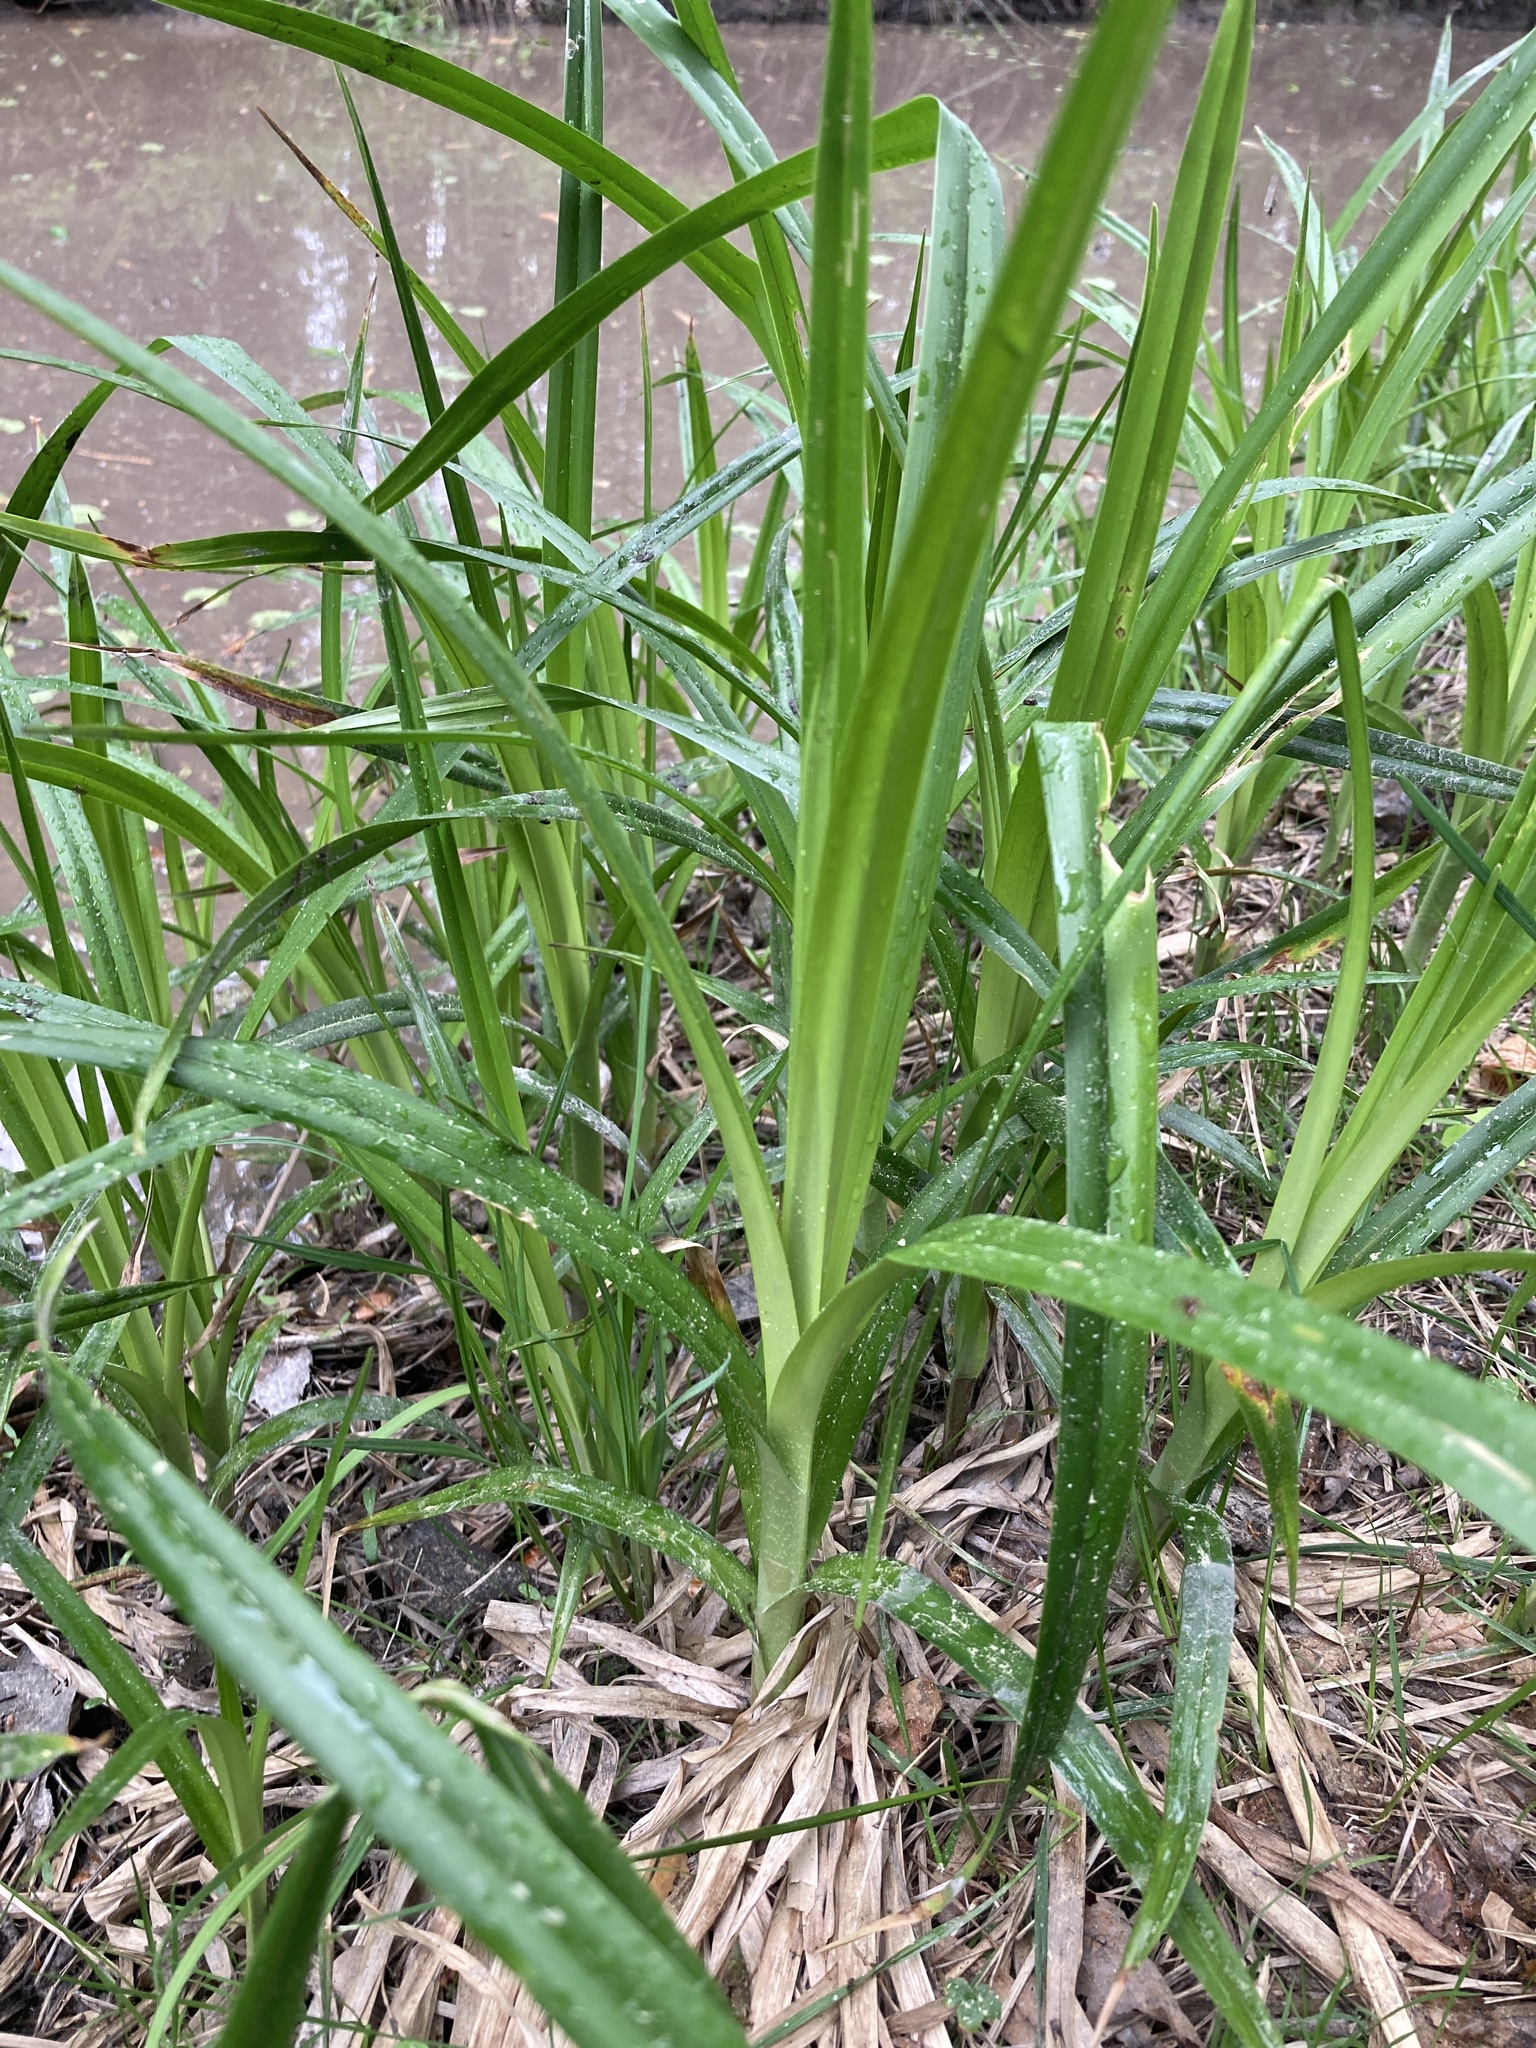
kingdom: Plantae
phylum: Tracheophyta
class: Liliopsida
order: Poales
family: Cyperaceae
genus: Scirpus
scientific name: Scirpus sylvaticus
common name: Wood club-rush
